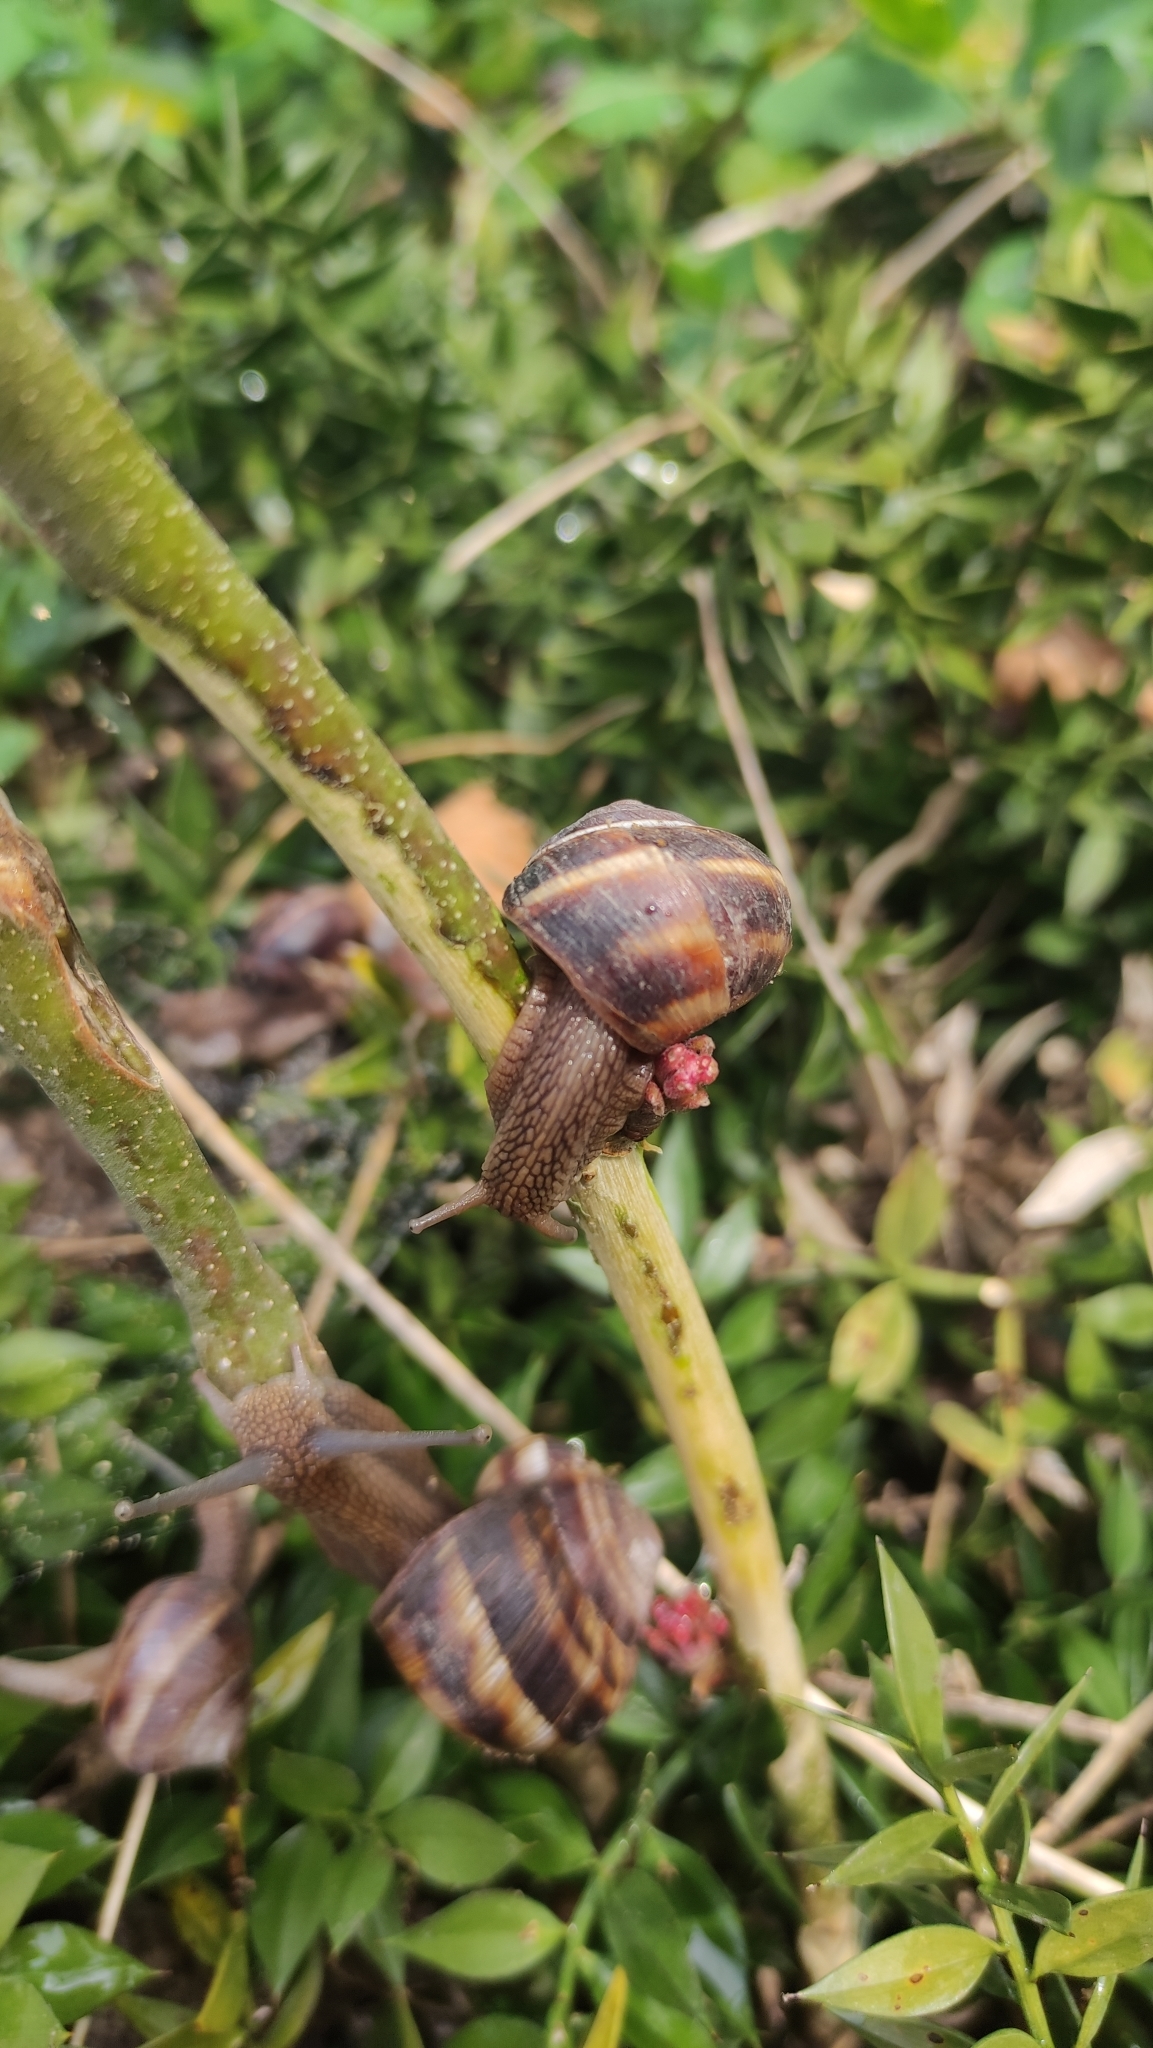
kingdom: Animalia
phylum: Mollusca
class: Gastropoda
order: Stylommatophora
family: Helicidae
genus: Helix
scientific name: Helix lucorum
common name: Turkish snail
